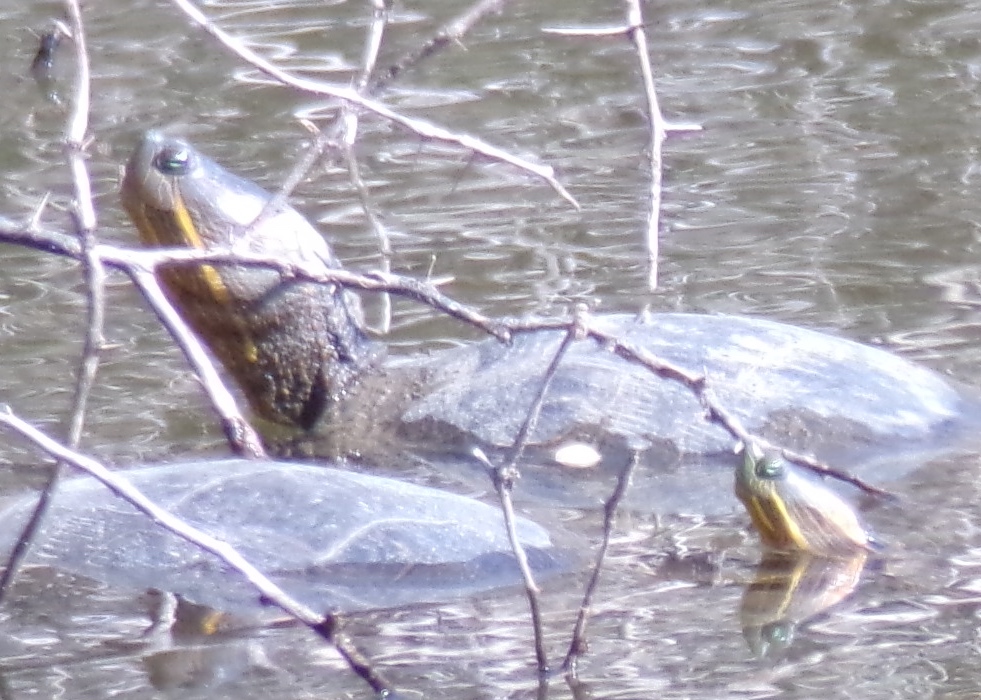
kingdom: Animalia
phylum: Chordata
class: Testudines
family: Emydidae
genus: Trachemys
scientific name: Trachemys ornata
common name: Ornate slider
